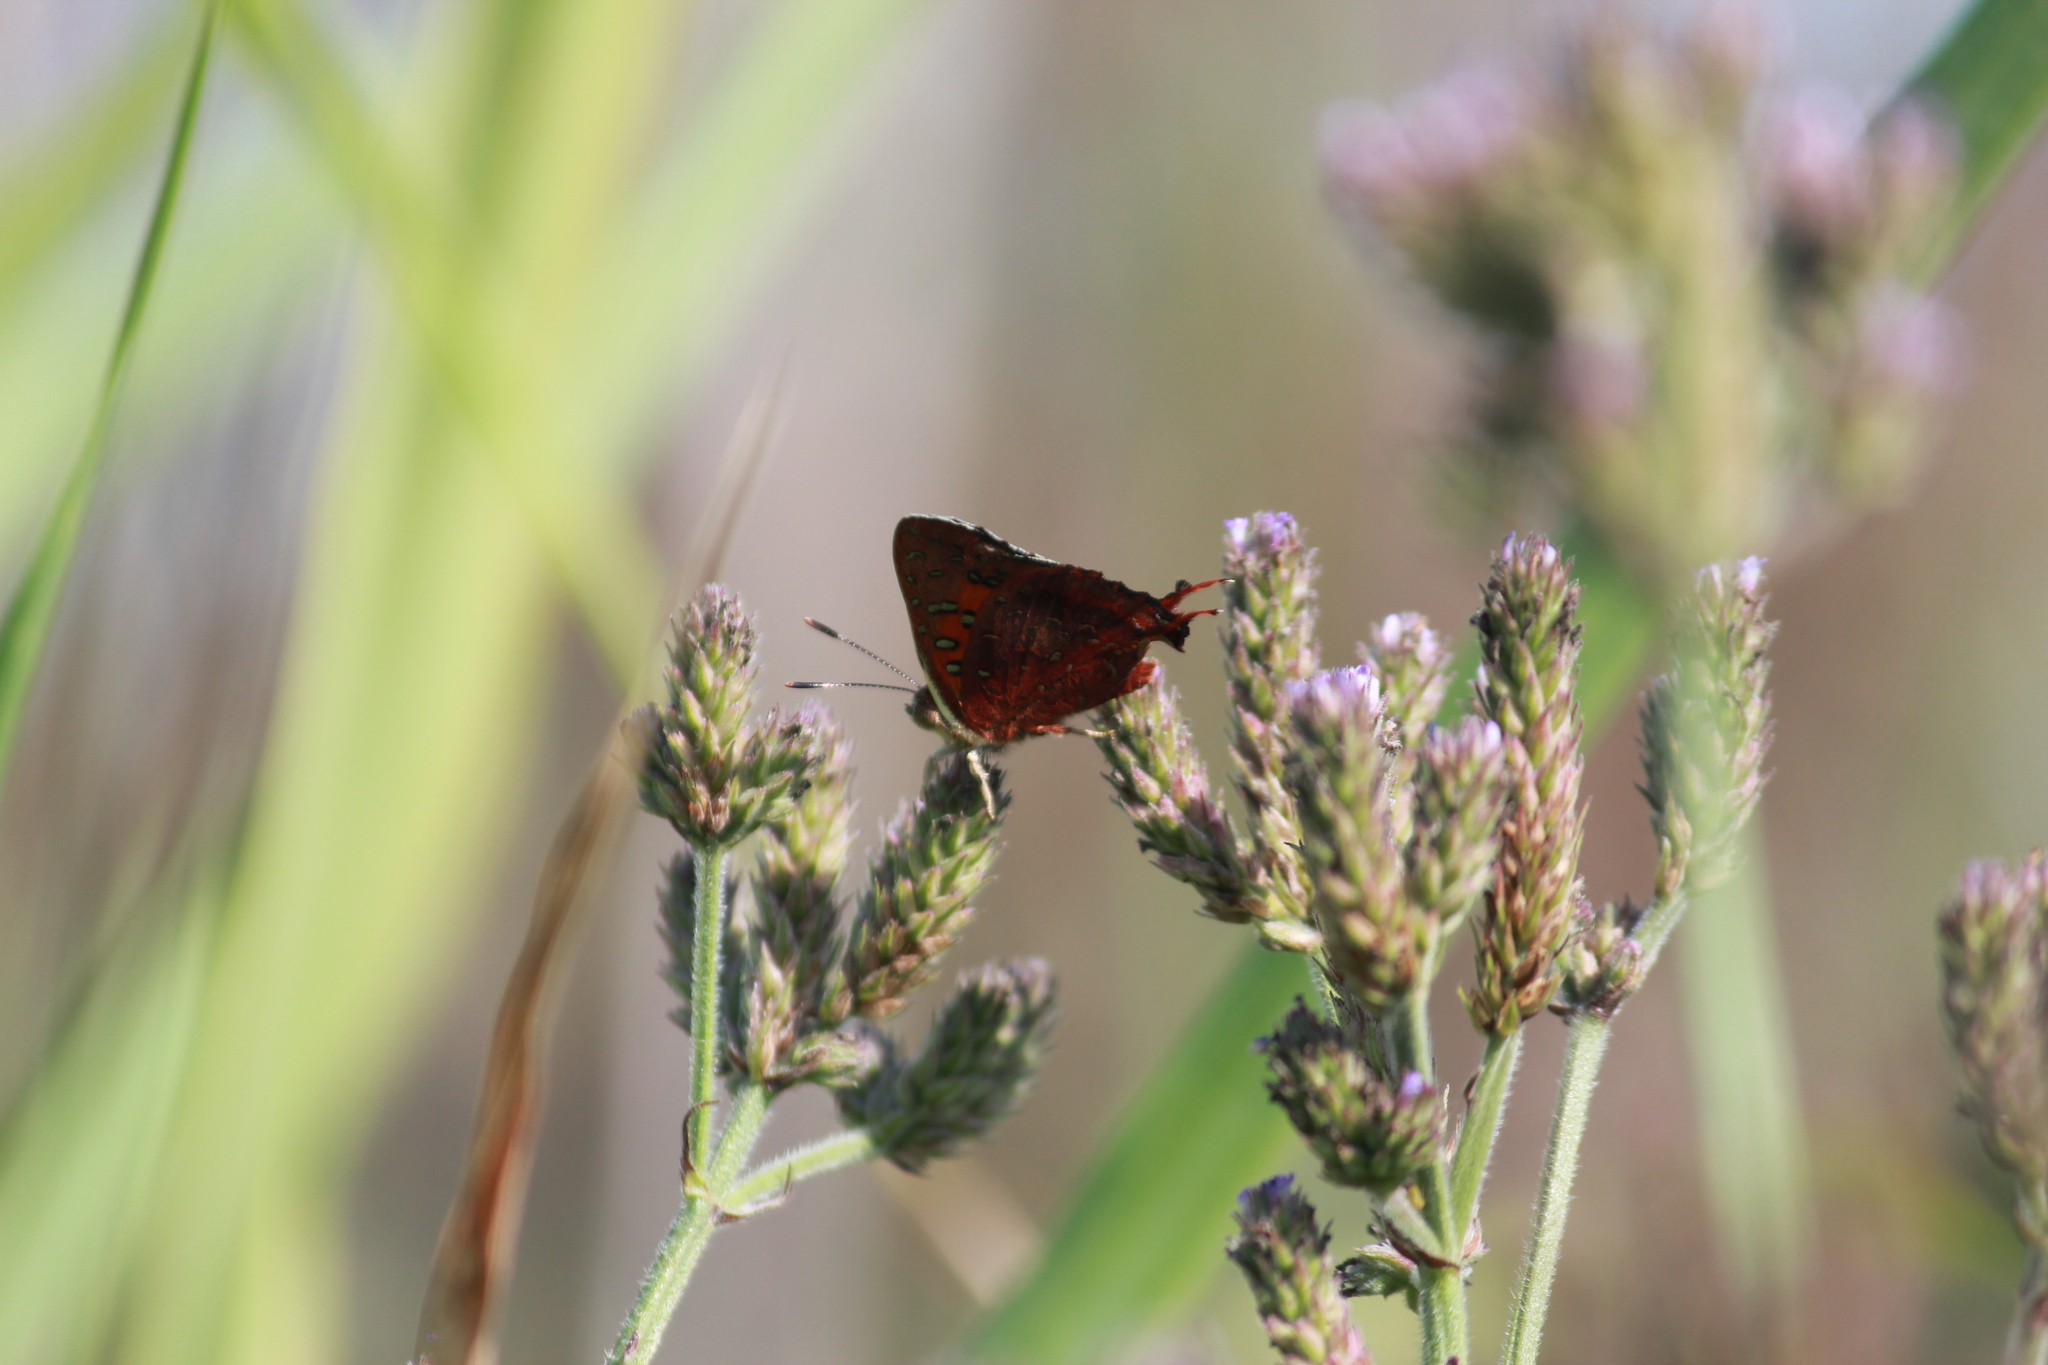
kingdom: Animalia
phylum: Arthropoda
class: Insecta
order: Lepidoptera
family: Lycaenidae
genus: Axiocerses
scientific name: Axiocerses perion
